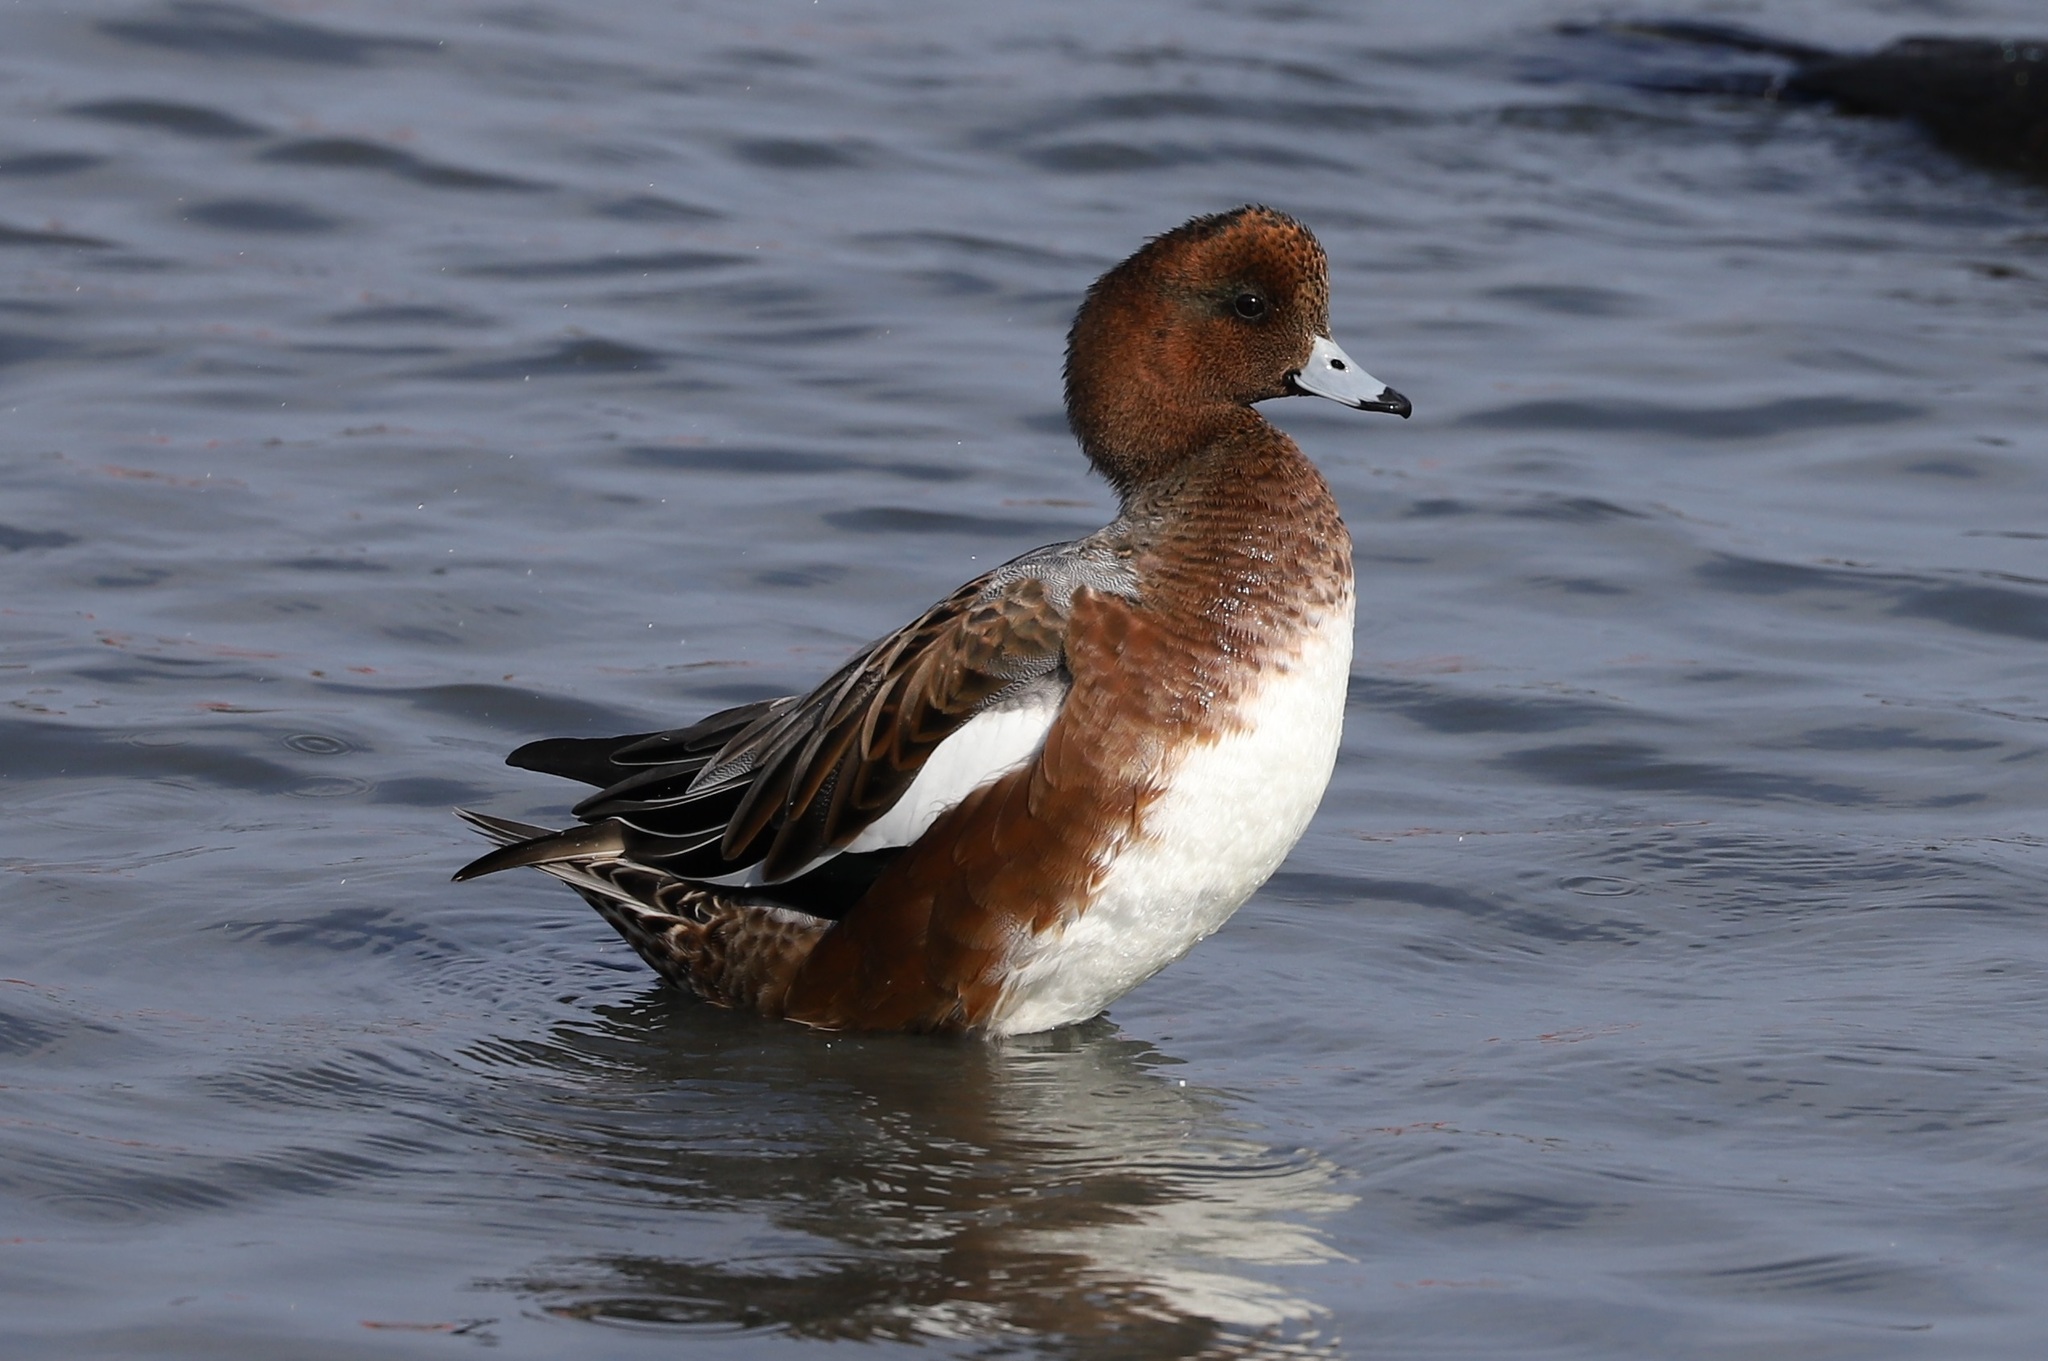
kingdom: Animalia
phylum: Chordata
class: Aves
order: Anseriformes
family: Anatidae
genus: Mareca
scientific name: Mareca penelope
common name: Eurasian wigeon
